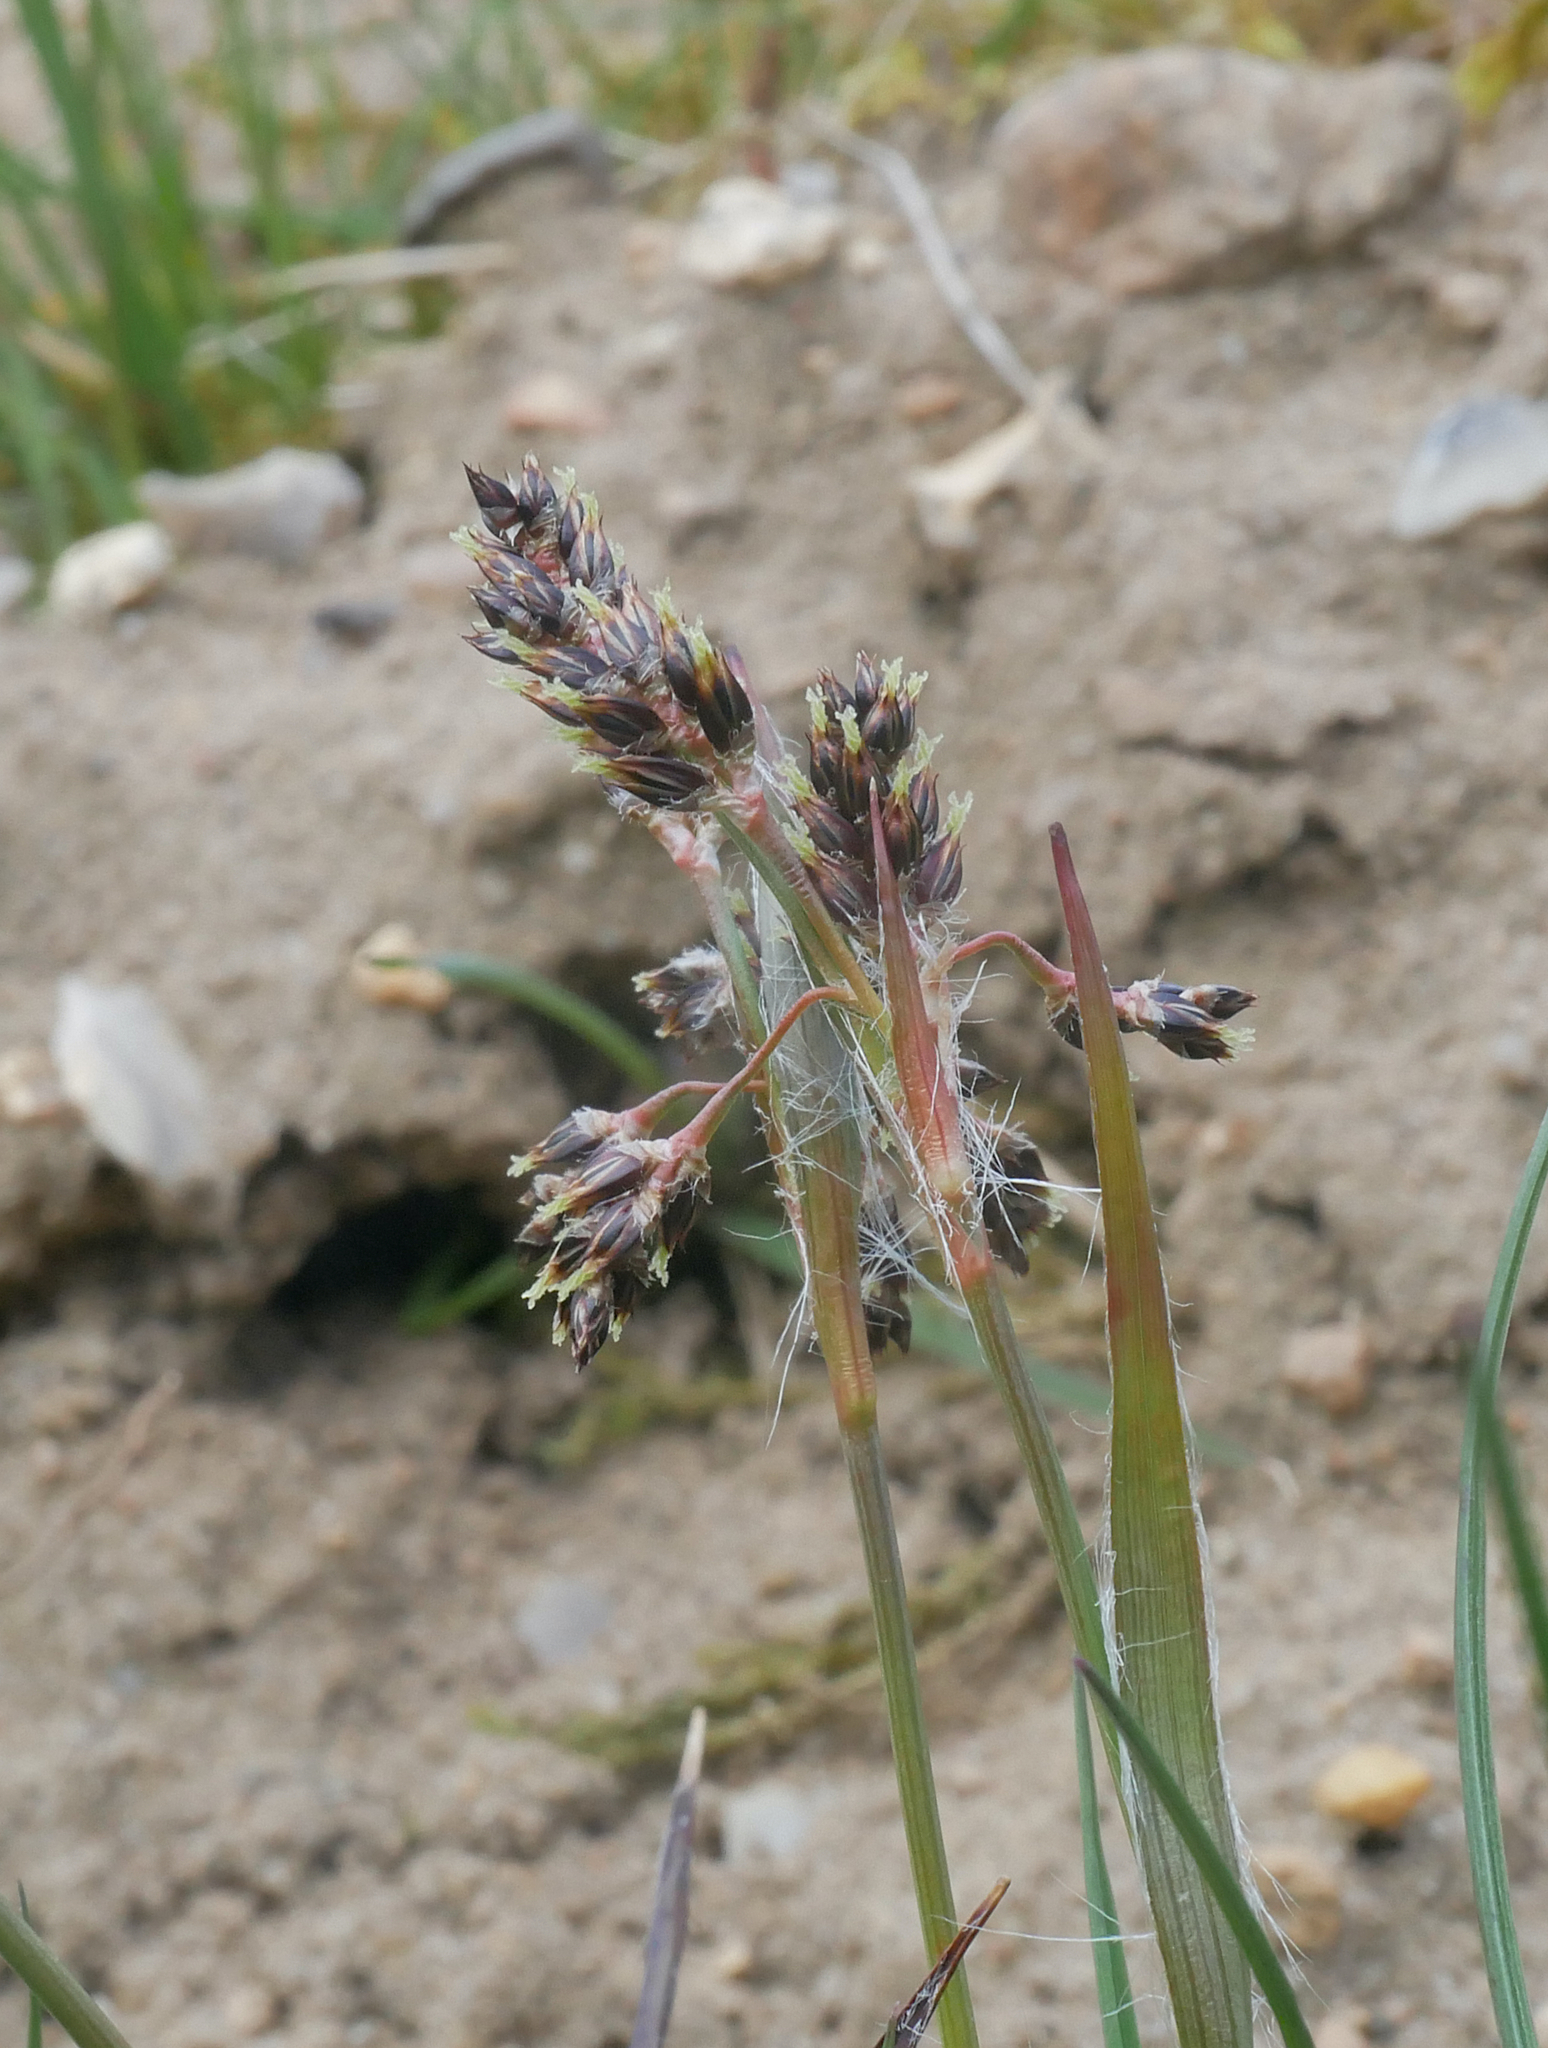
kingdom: Plantae
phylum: Tracheophyta
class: Liliopsida
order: Poales
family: Juncaceae
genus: Luzula
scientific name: Luzula campestris
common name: Field wood-rush
